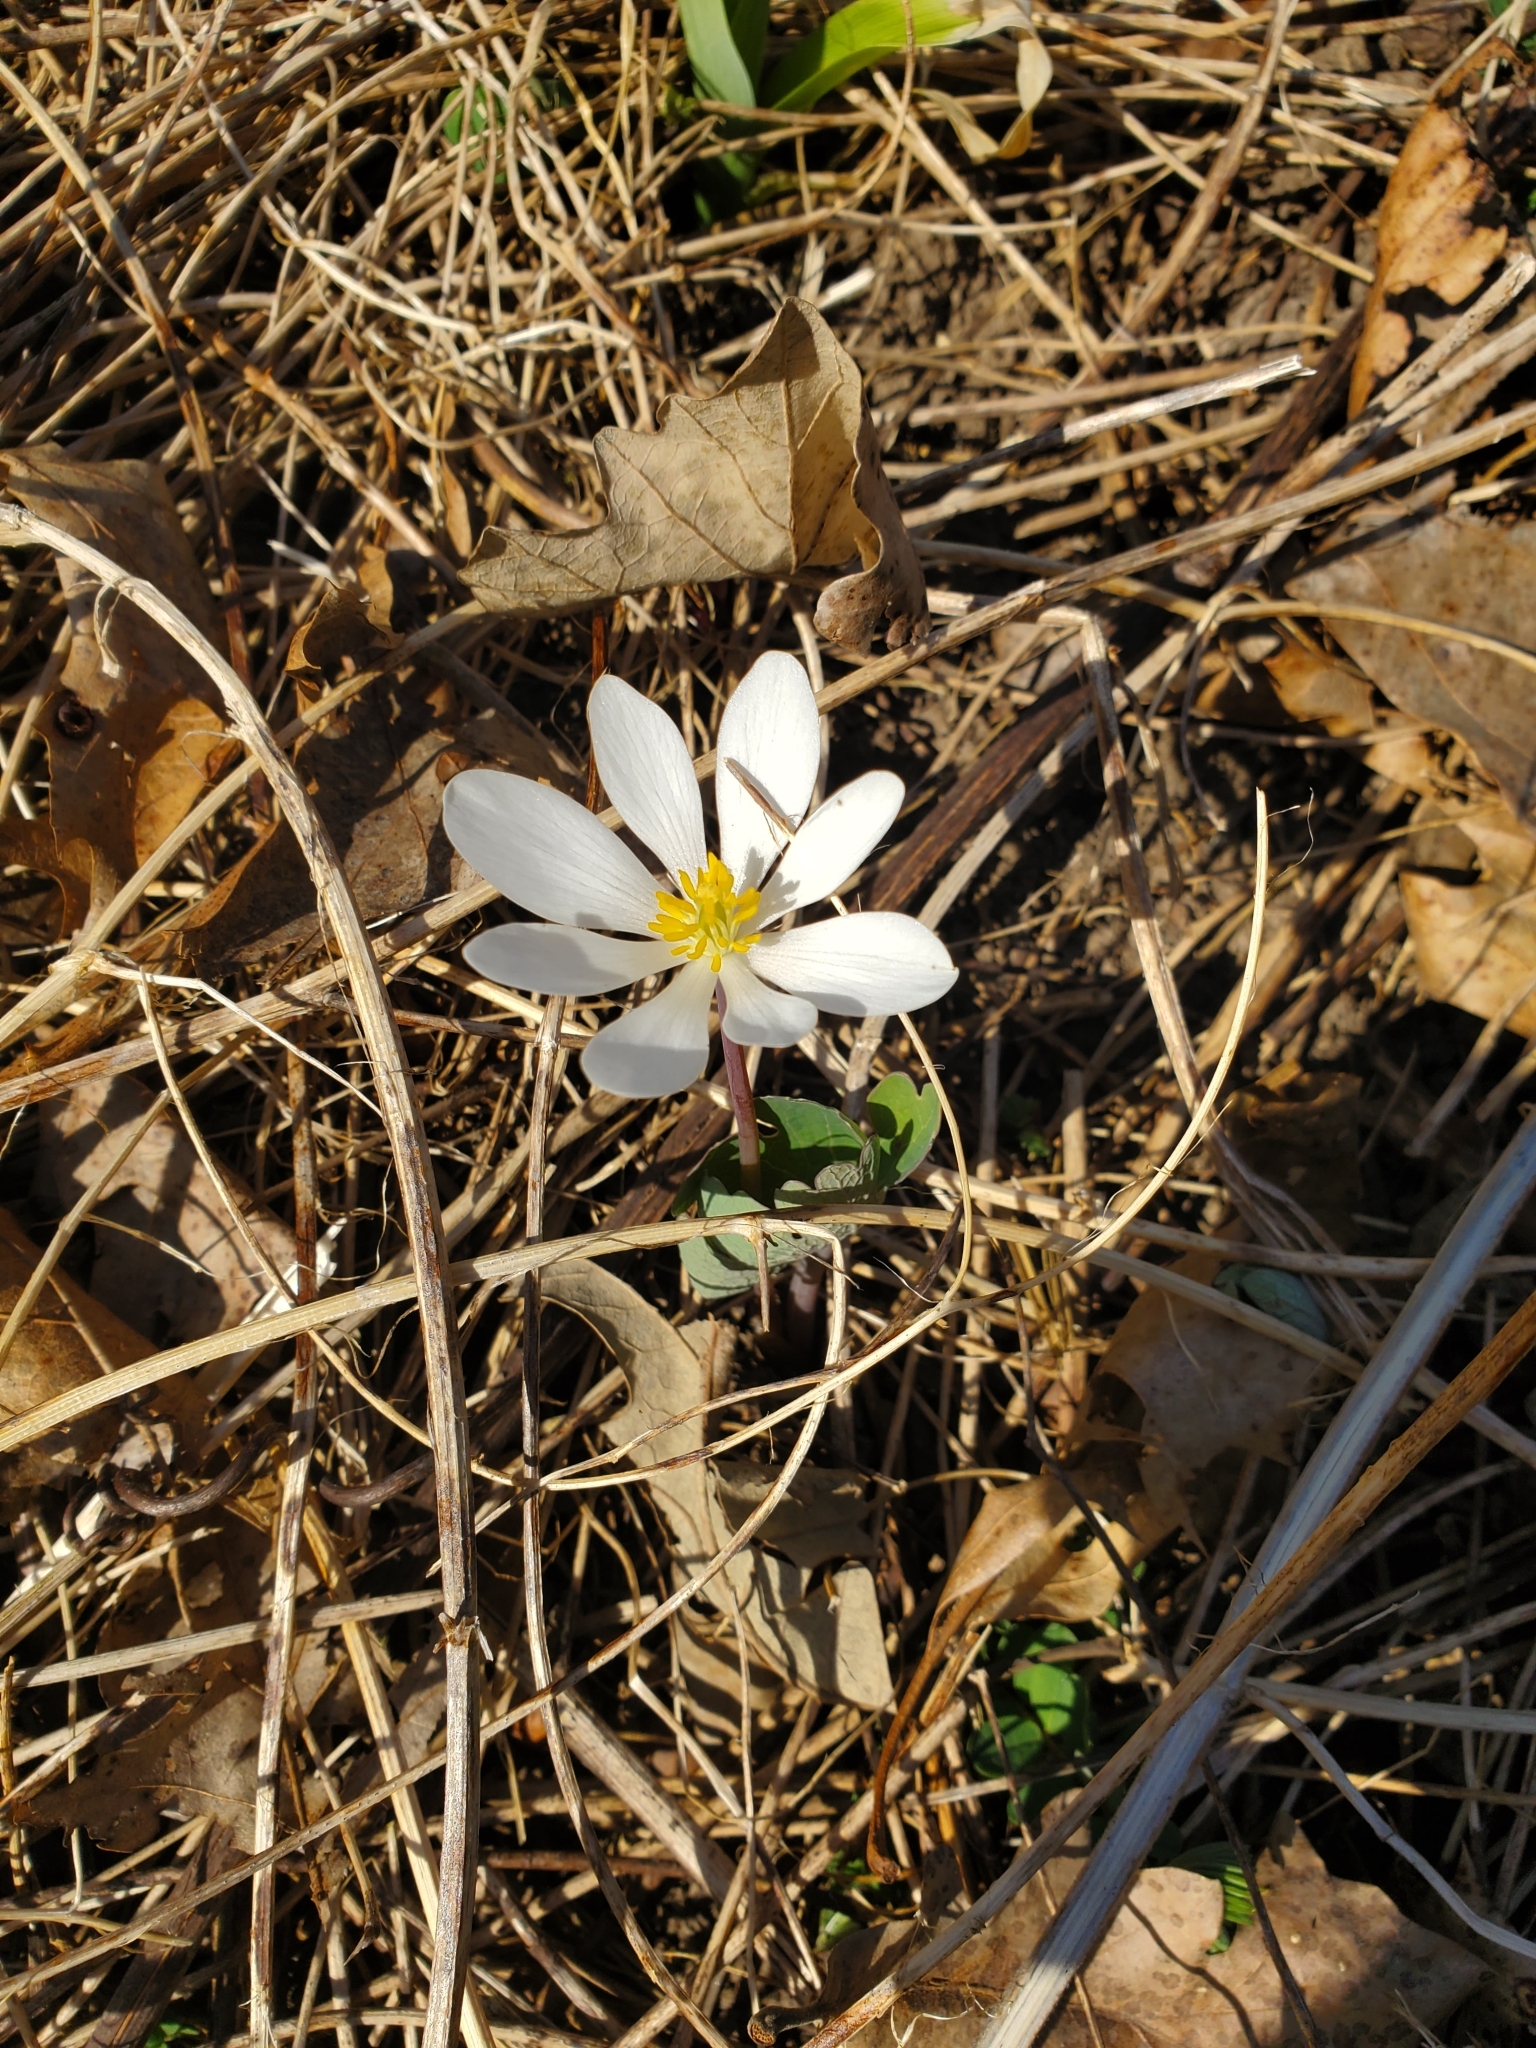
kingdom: Plantae
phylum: Tracheophyta
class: Magnoliopsida
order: Ranunculales
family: Papaveraceae
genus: Sanguinaria
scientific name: Sanguinaria canadensis
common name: Bloodroot
